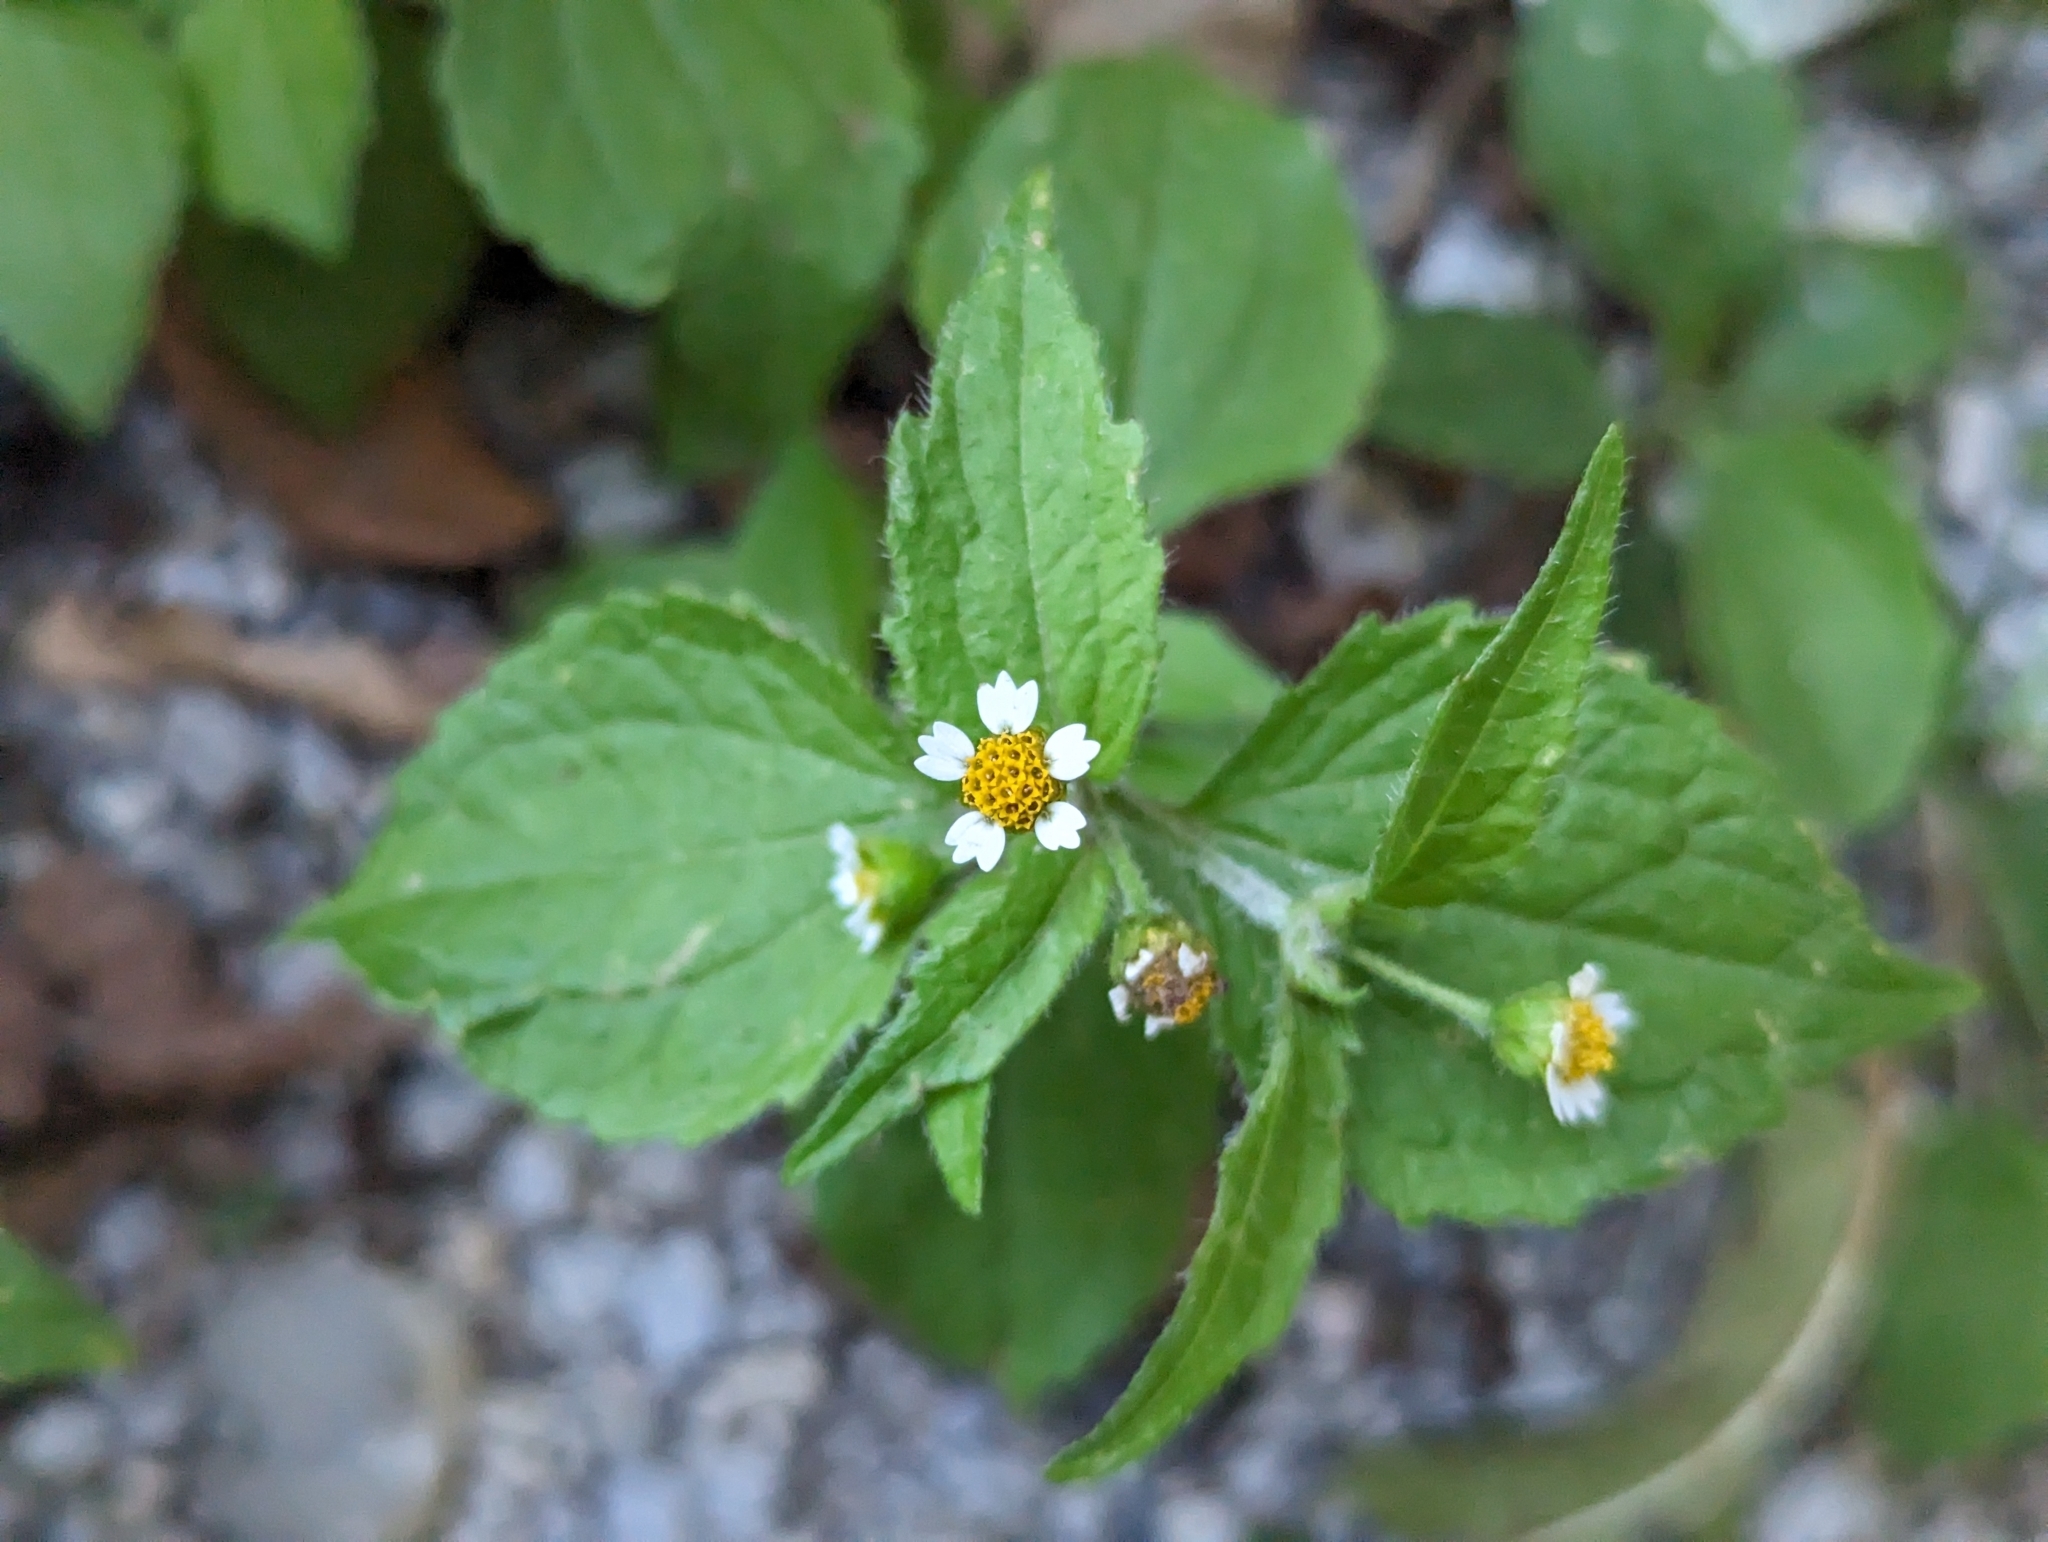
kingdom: Plantae
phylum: Tracheophyta
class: Magnoliopsida
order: Asterales
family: Asteraceae
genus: Galinsoga
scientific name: Galinsoga quadriradiata
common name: Shaggy soldier
